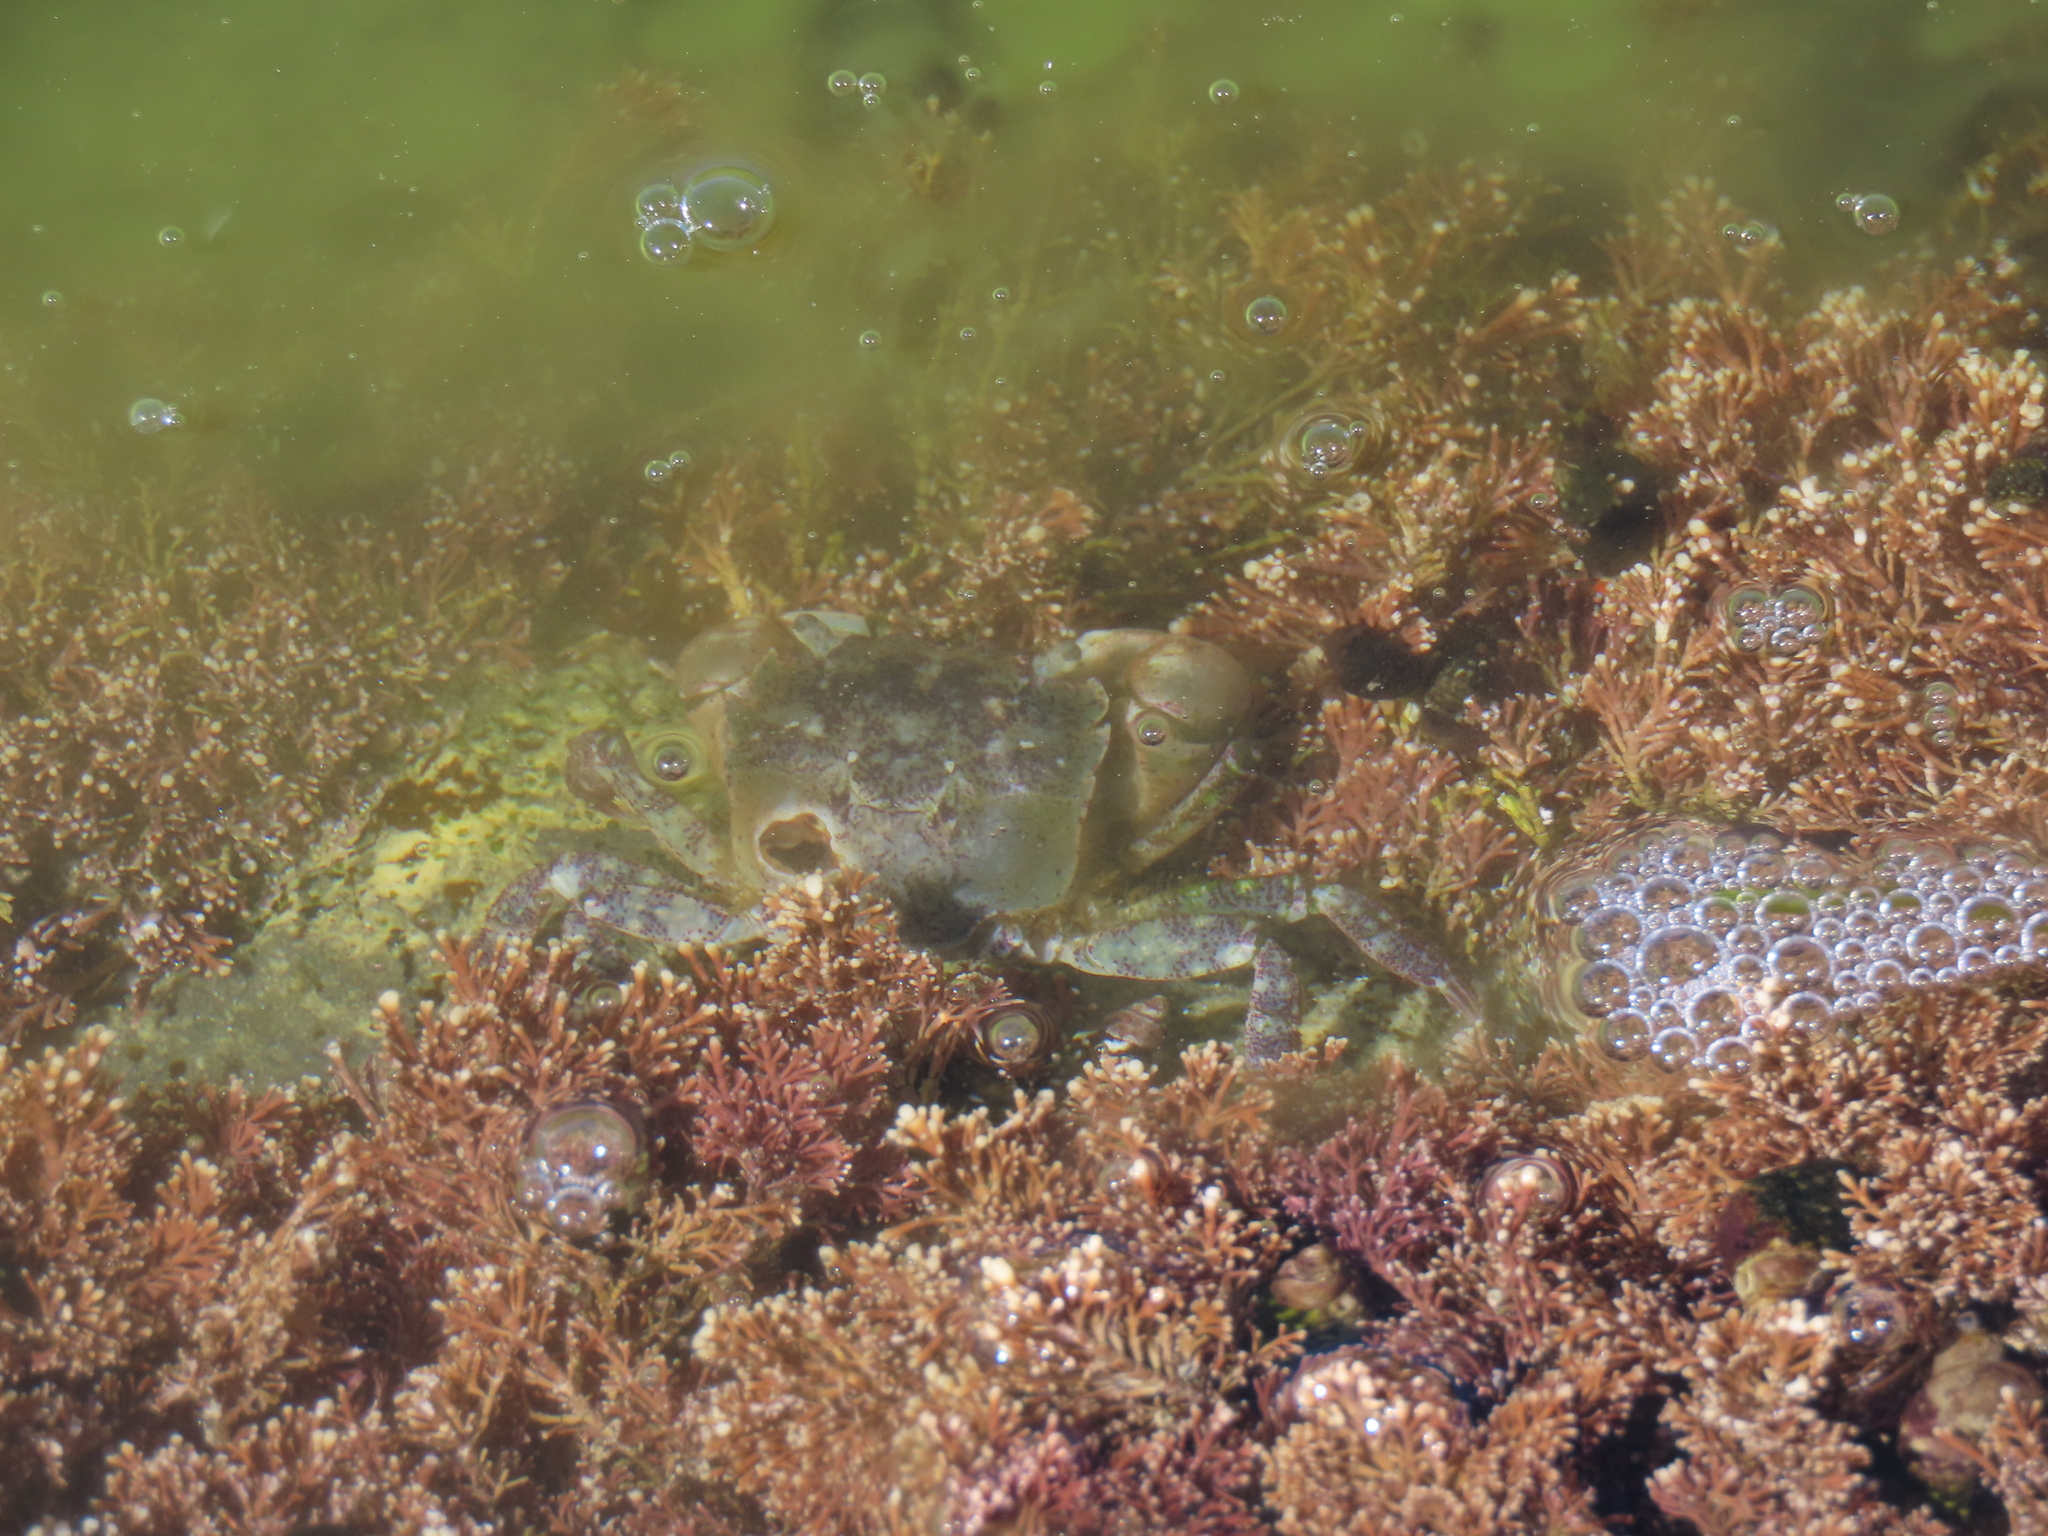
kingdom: Animalia
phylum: Arthropoda
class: Malacostraca
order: Decapoda
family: Varunidae
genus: Hemigrapsus
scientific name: Hemigrapsus oregonensis
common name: Yellow shore crab
